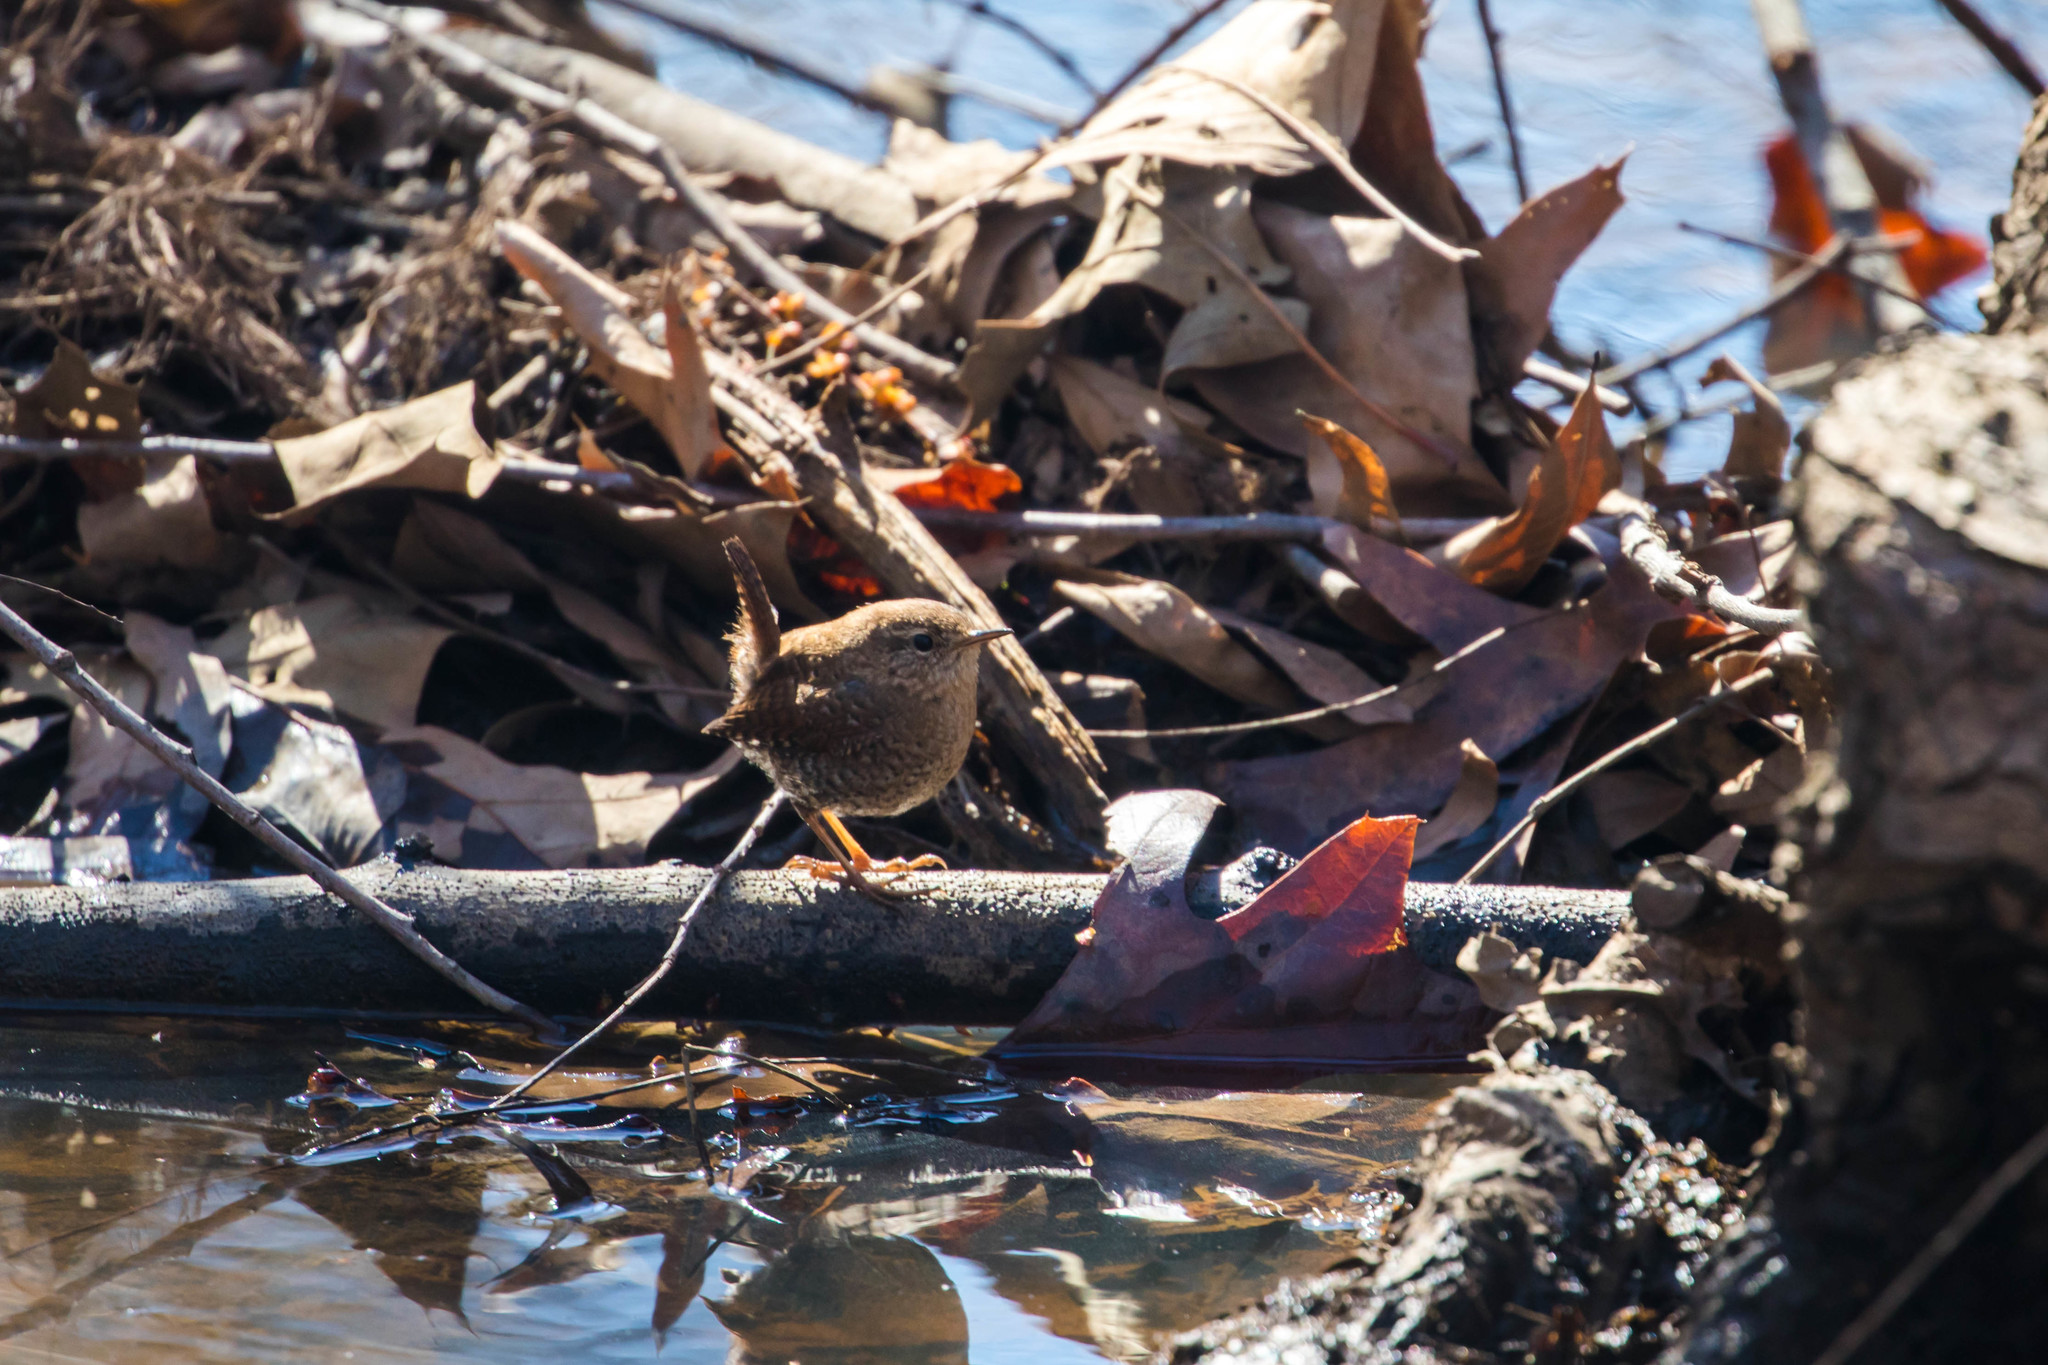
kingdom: Animalia
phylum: Chordata
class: Aves
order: Passeriformes
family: Troglodytidae
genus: Troglodytes
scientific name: Troglodytes hiemalis
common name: Winter wren
